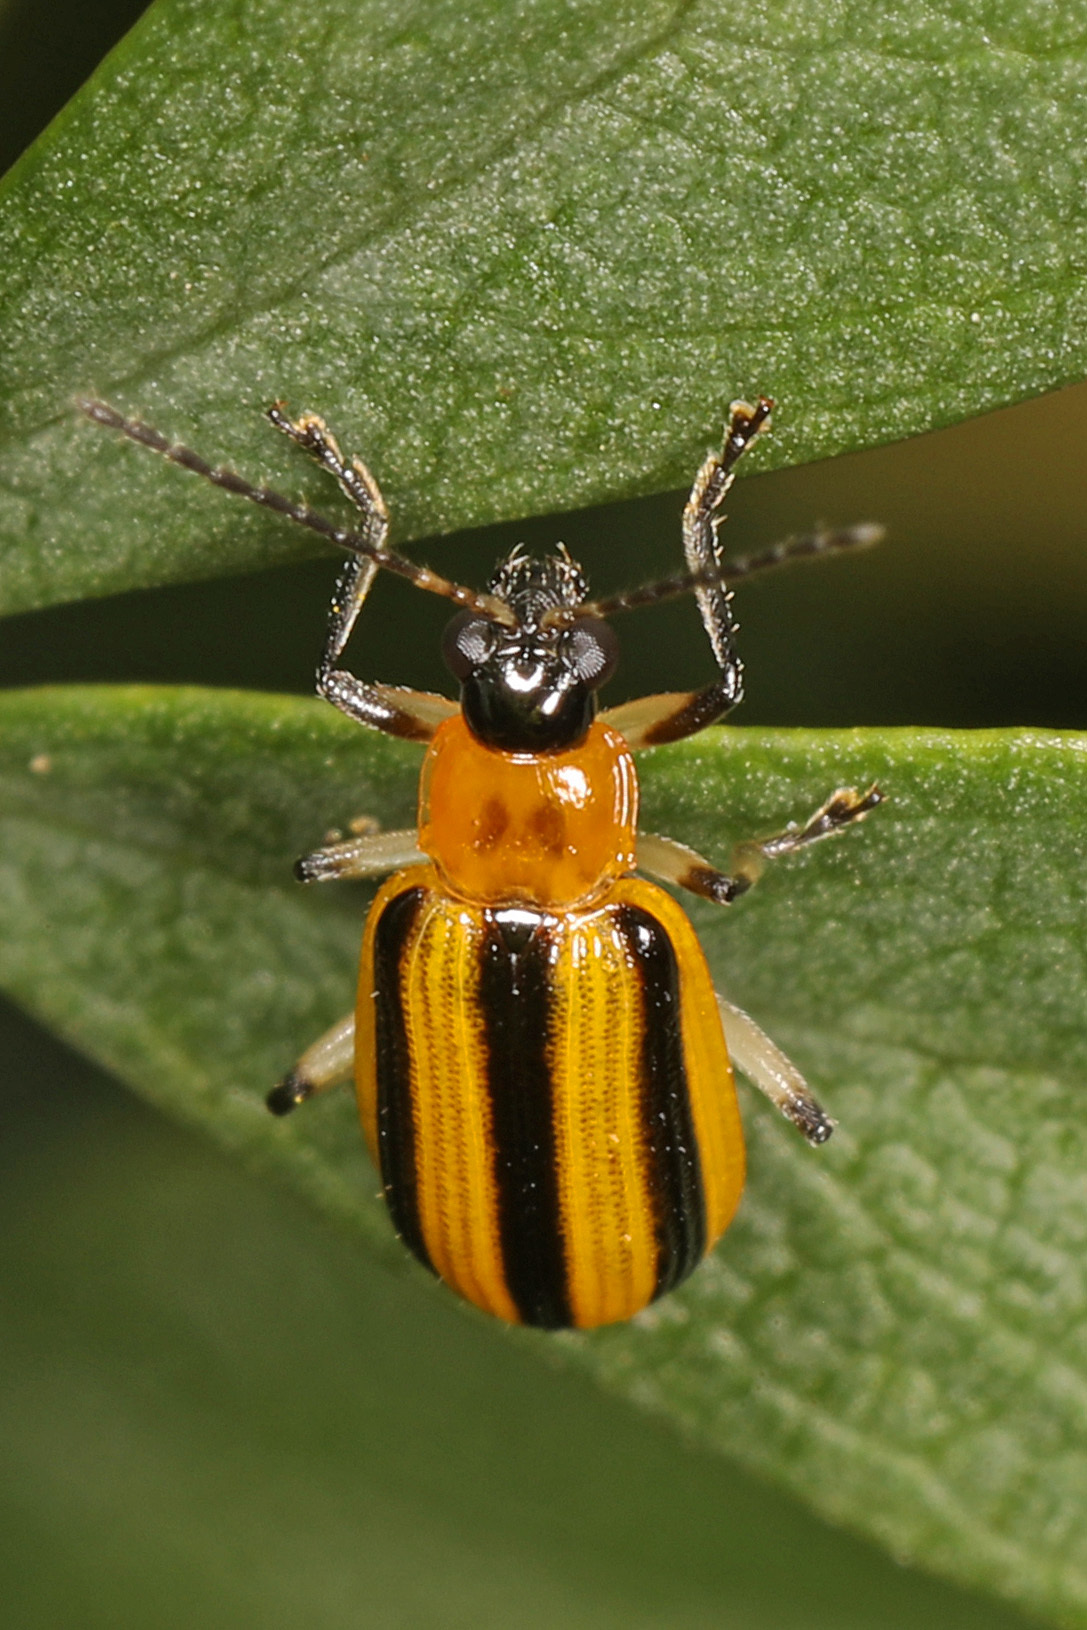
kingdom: Animalia
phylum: Arthropoda
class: Insecta
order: Coleoptera
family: Chrysomelidae
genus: Acalymma
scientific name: Acalymma vittatum
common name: Striped cucumber beetle
